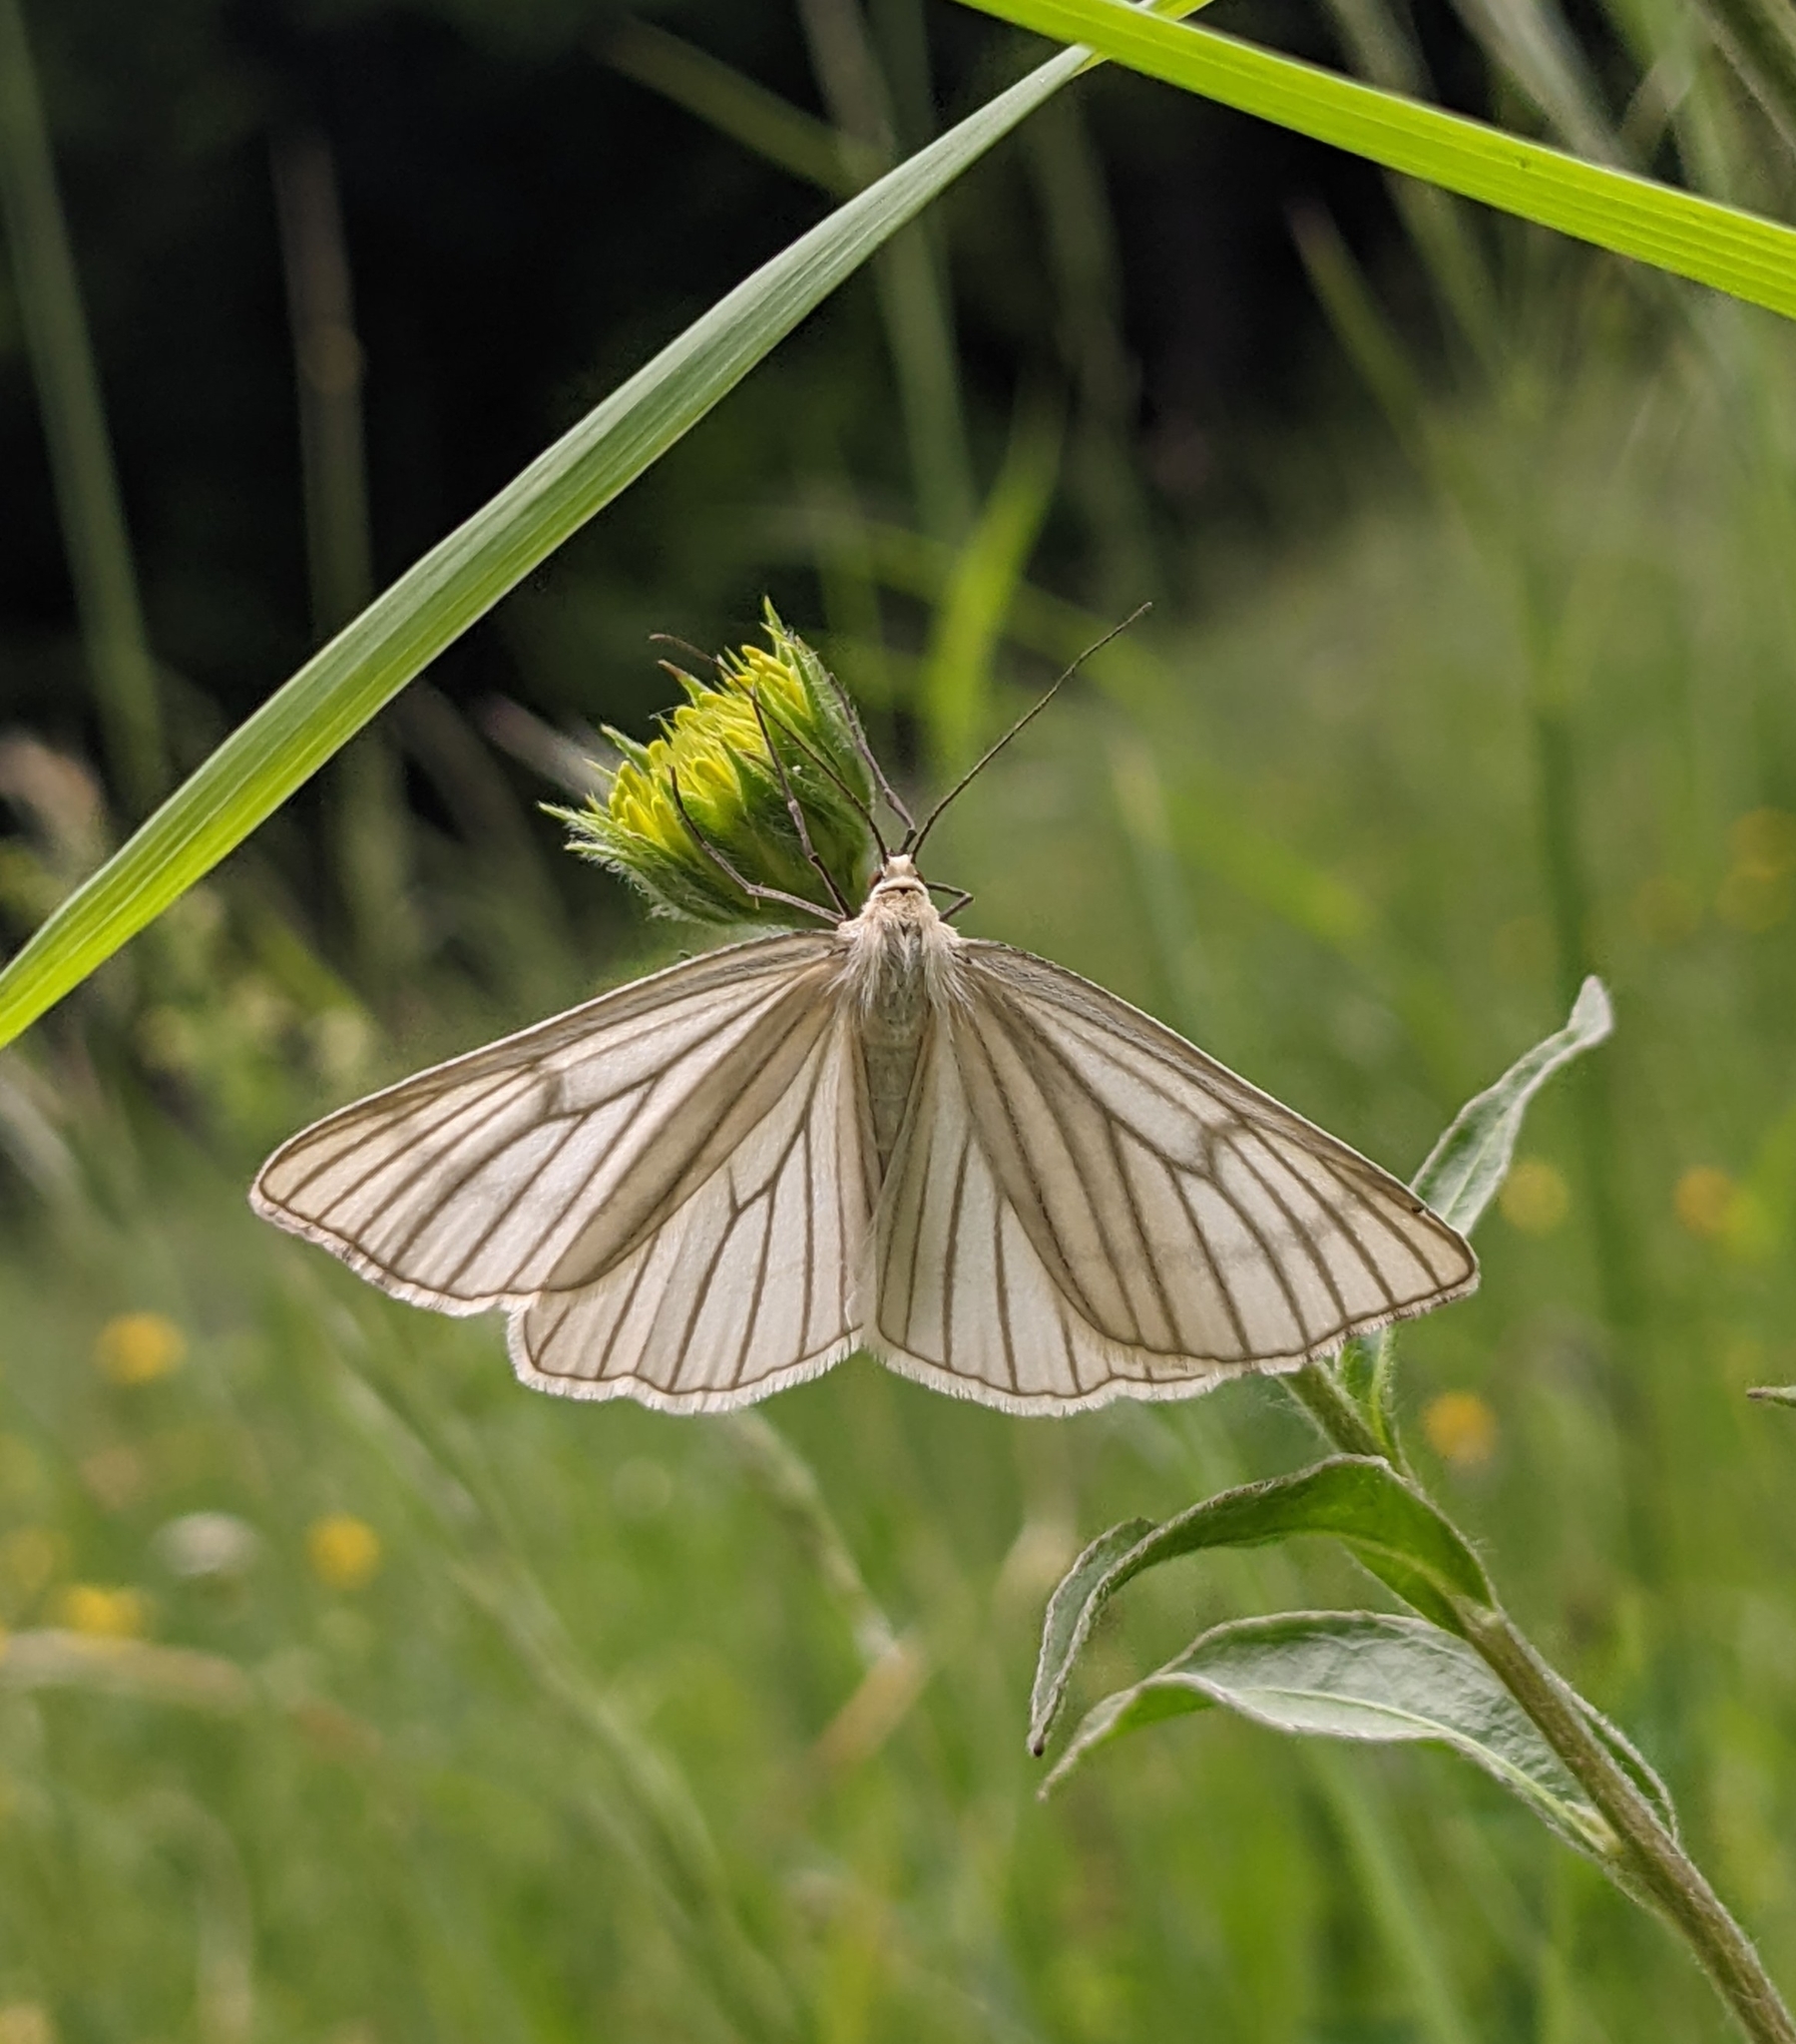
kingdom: Animalia
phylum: Arthropoda
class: Insecta
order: Lepidoptera
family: Geometridae
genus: Siona
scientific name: Siona lineata
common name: Black-veined moth
